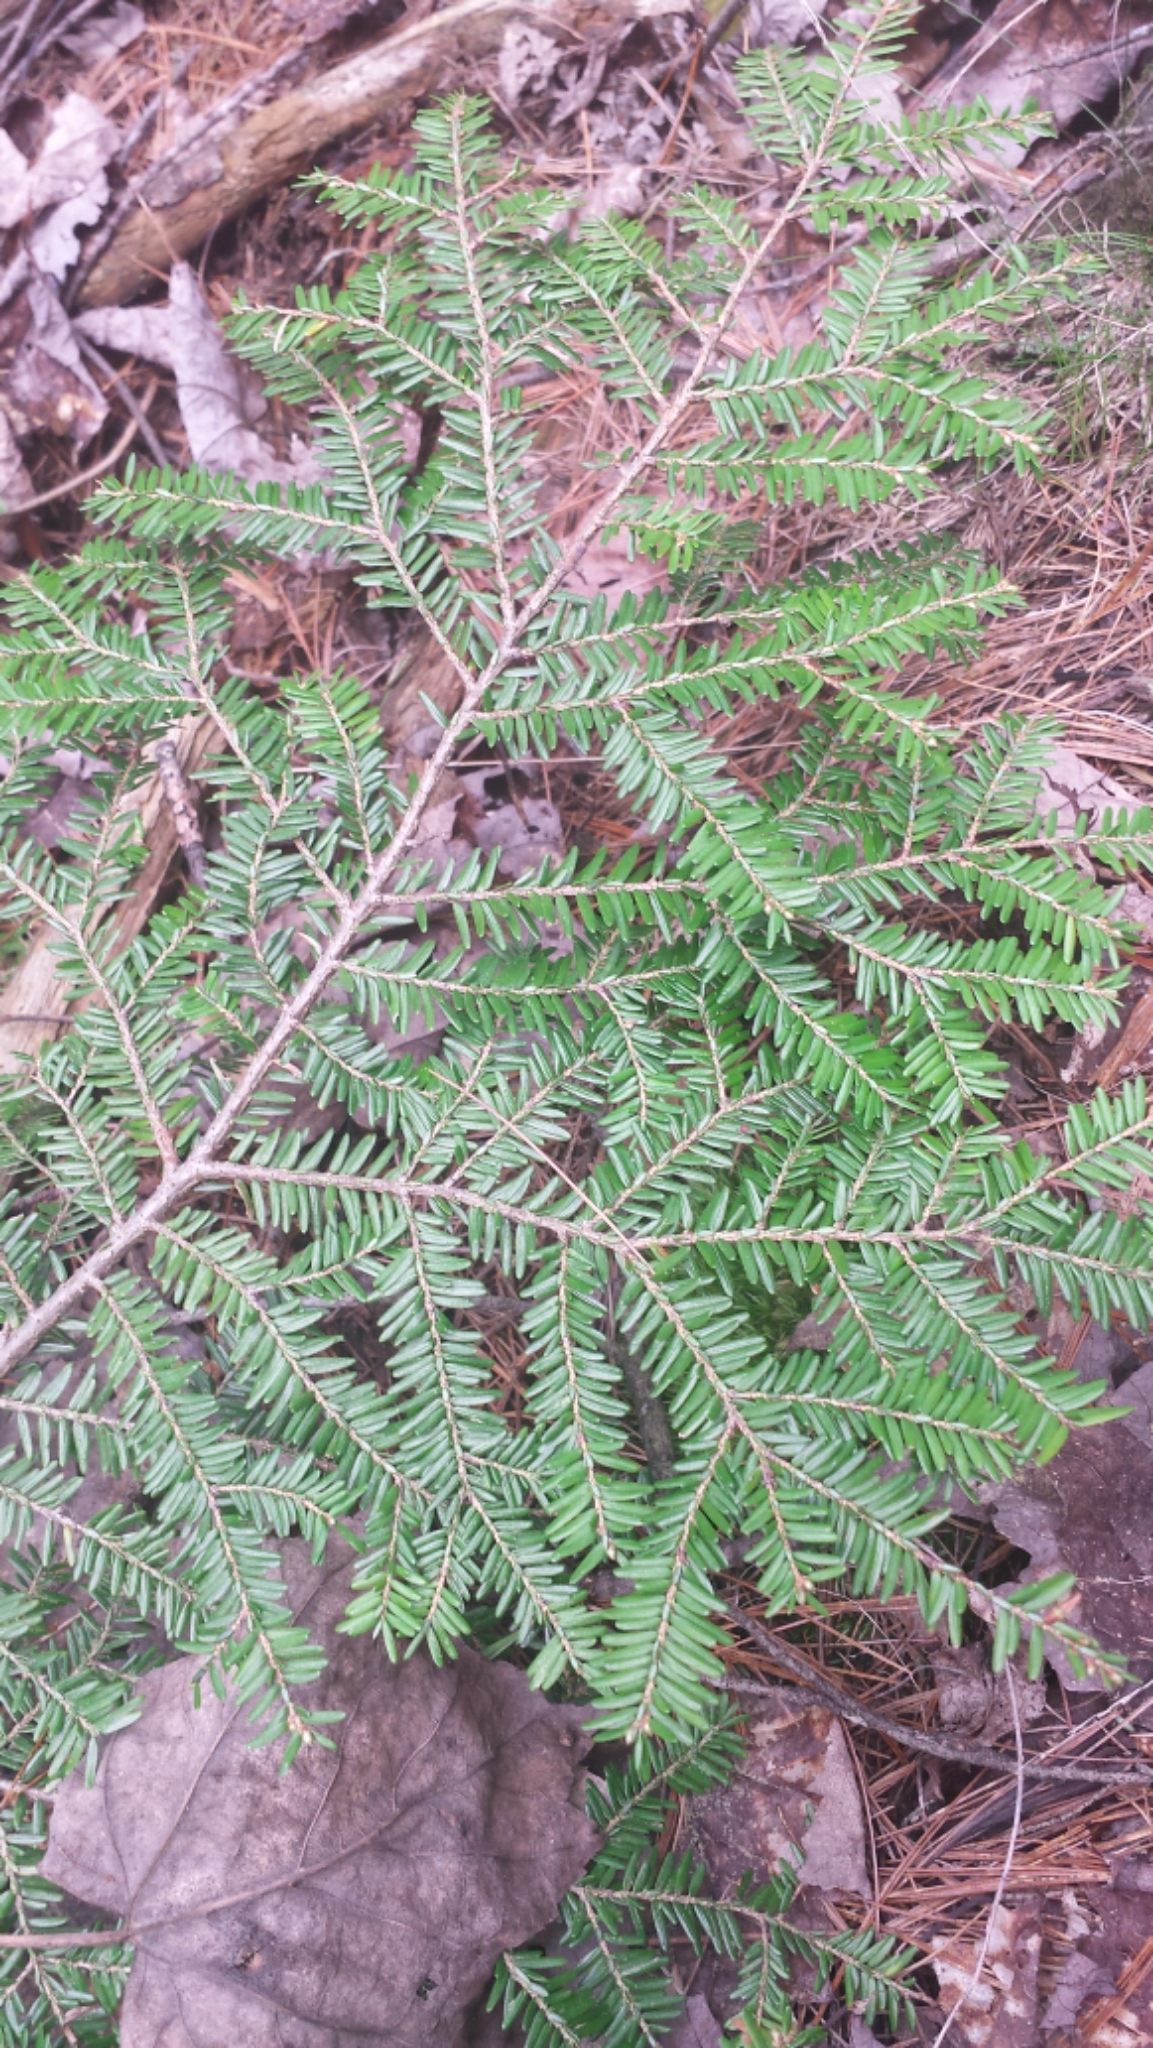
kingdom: Plantae
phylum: Tracheophyta
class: Pinopsida
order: Pinales
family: Pinaceae
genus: Tsuga
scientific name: Tsuga canadensis
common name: Eastern hemlock
